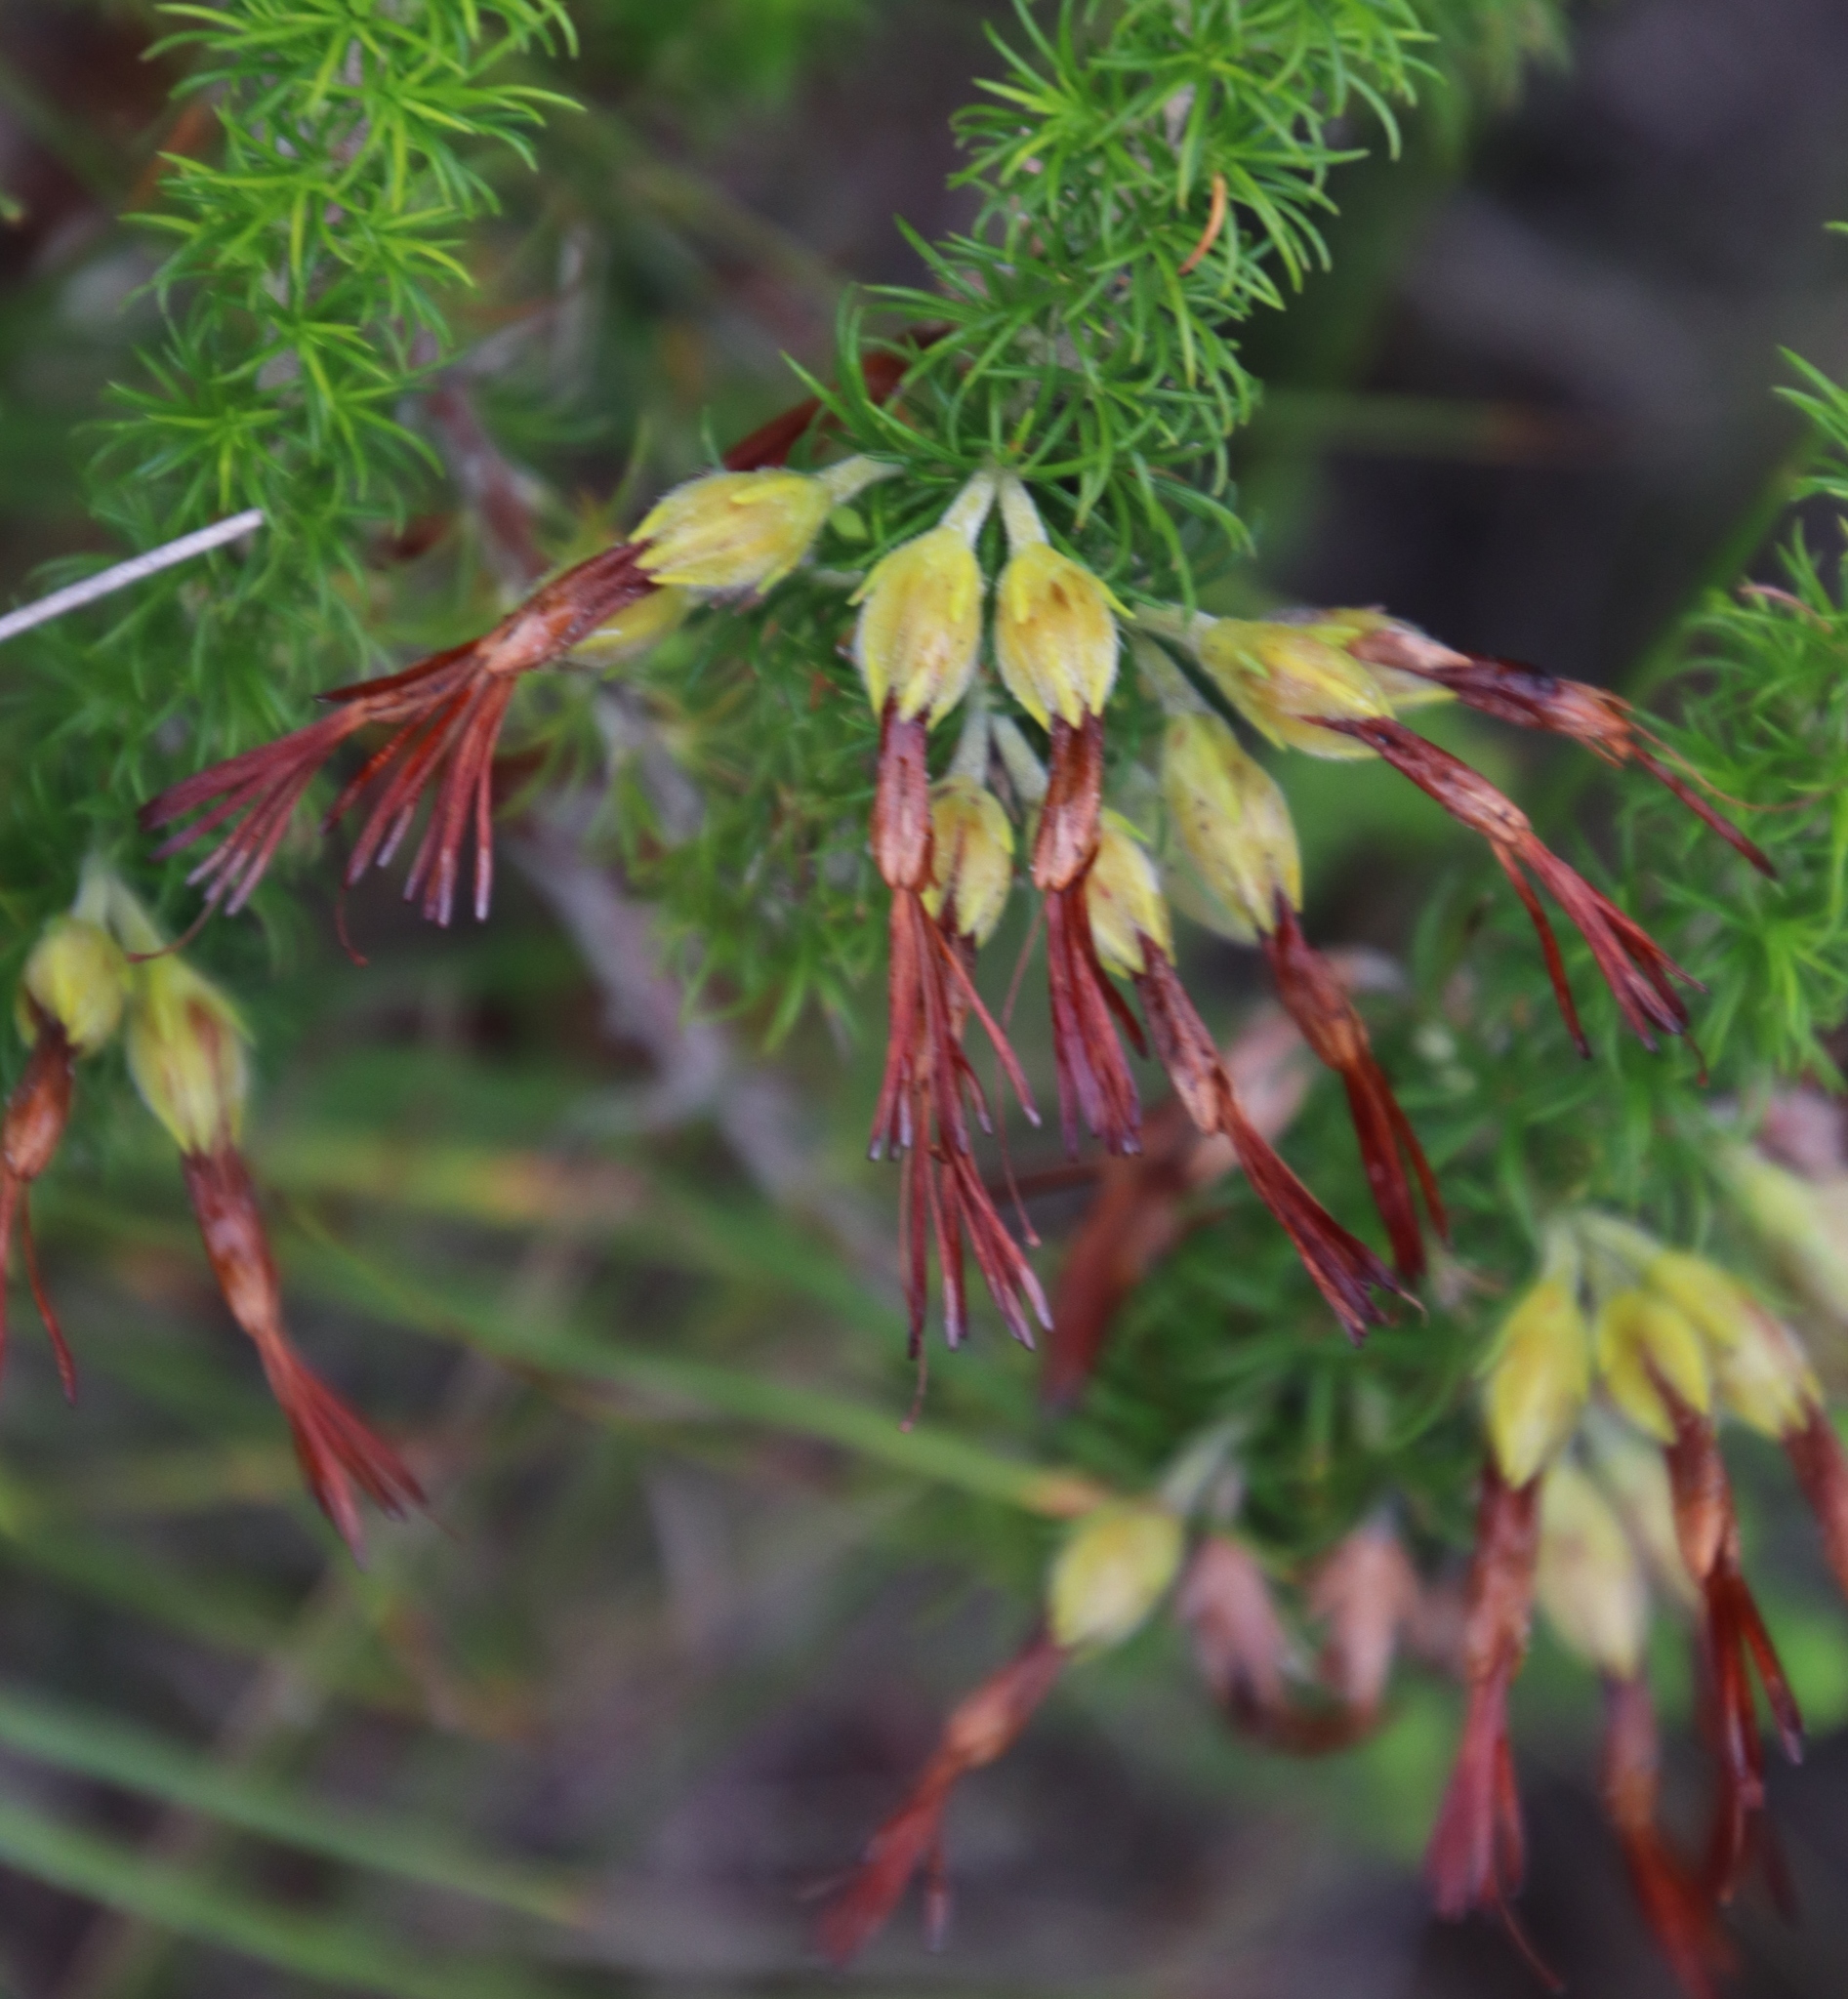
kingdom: Plantae
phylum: Tracheophyta
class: Magnoliopsida
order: Ericales
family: Ericaceae
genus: Erica
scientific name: Erica coccinea
